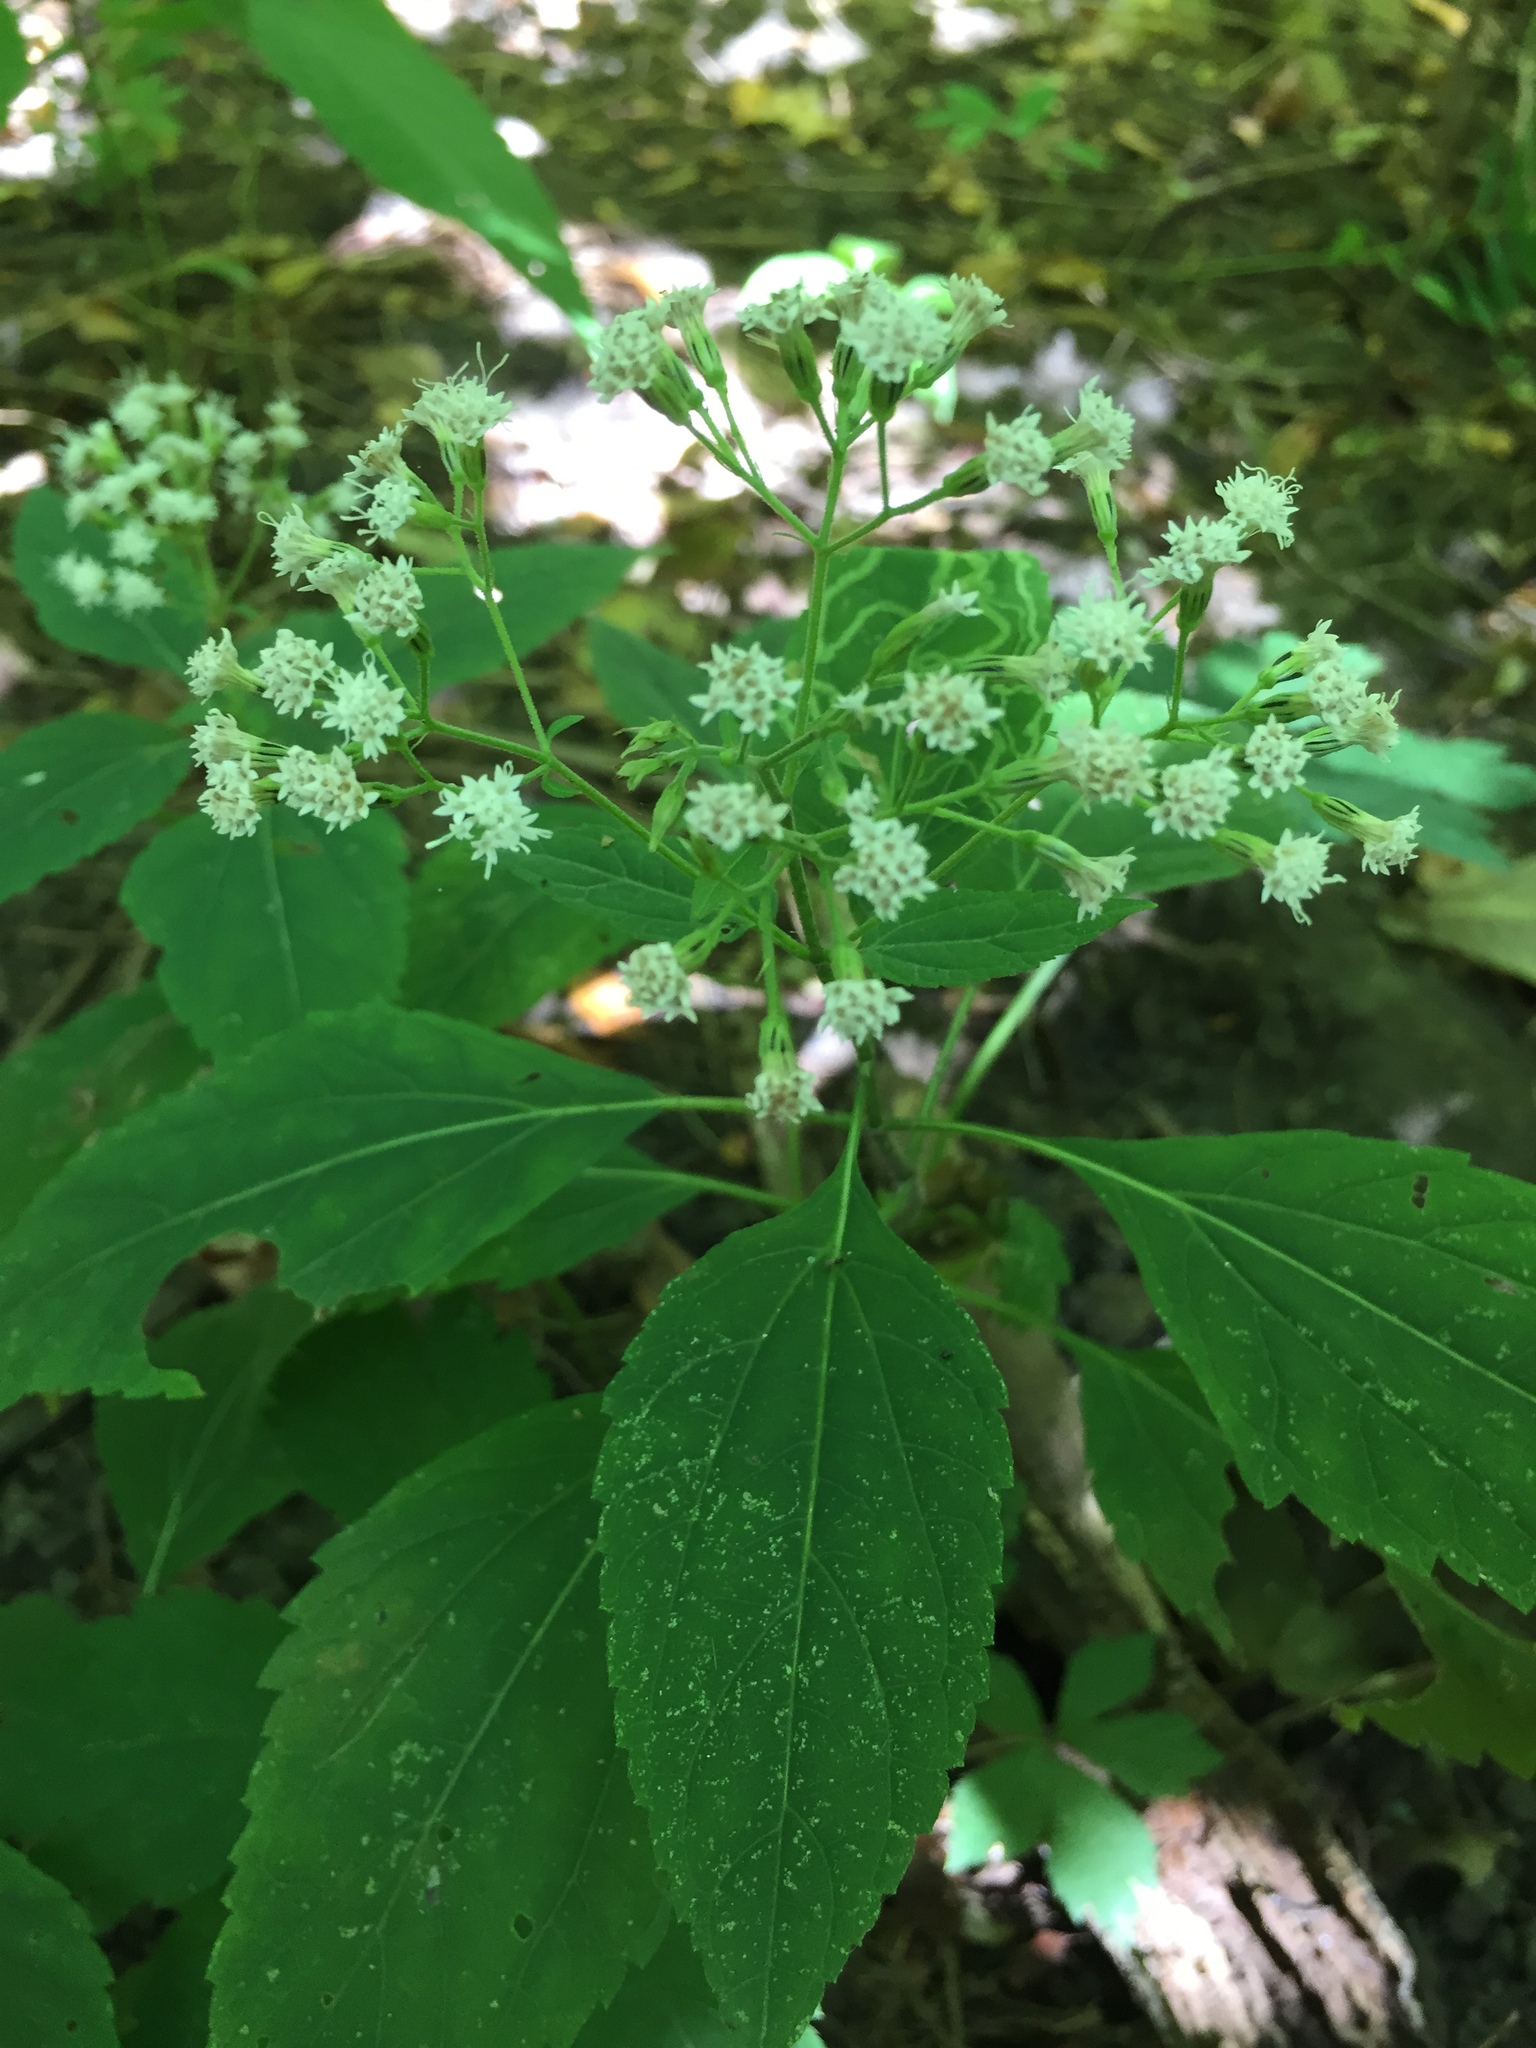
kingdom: Plantae
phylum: Tracheophyta
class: Magnoliopsida
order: Asterales
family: Asteraceae
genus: Ageratina
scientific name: Ageratina altissima
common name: White snakeroot
